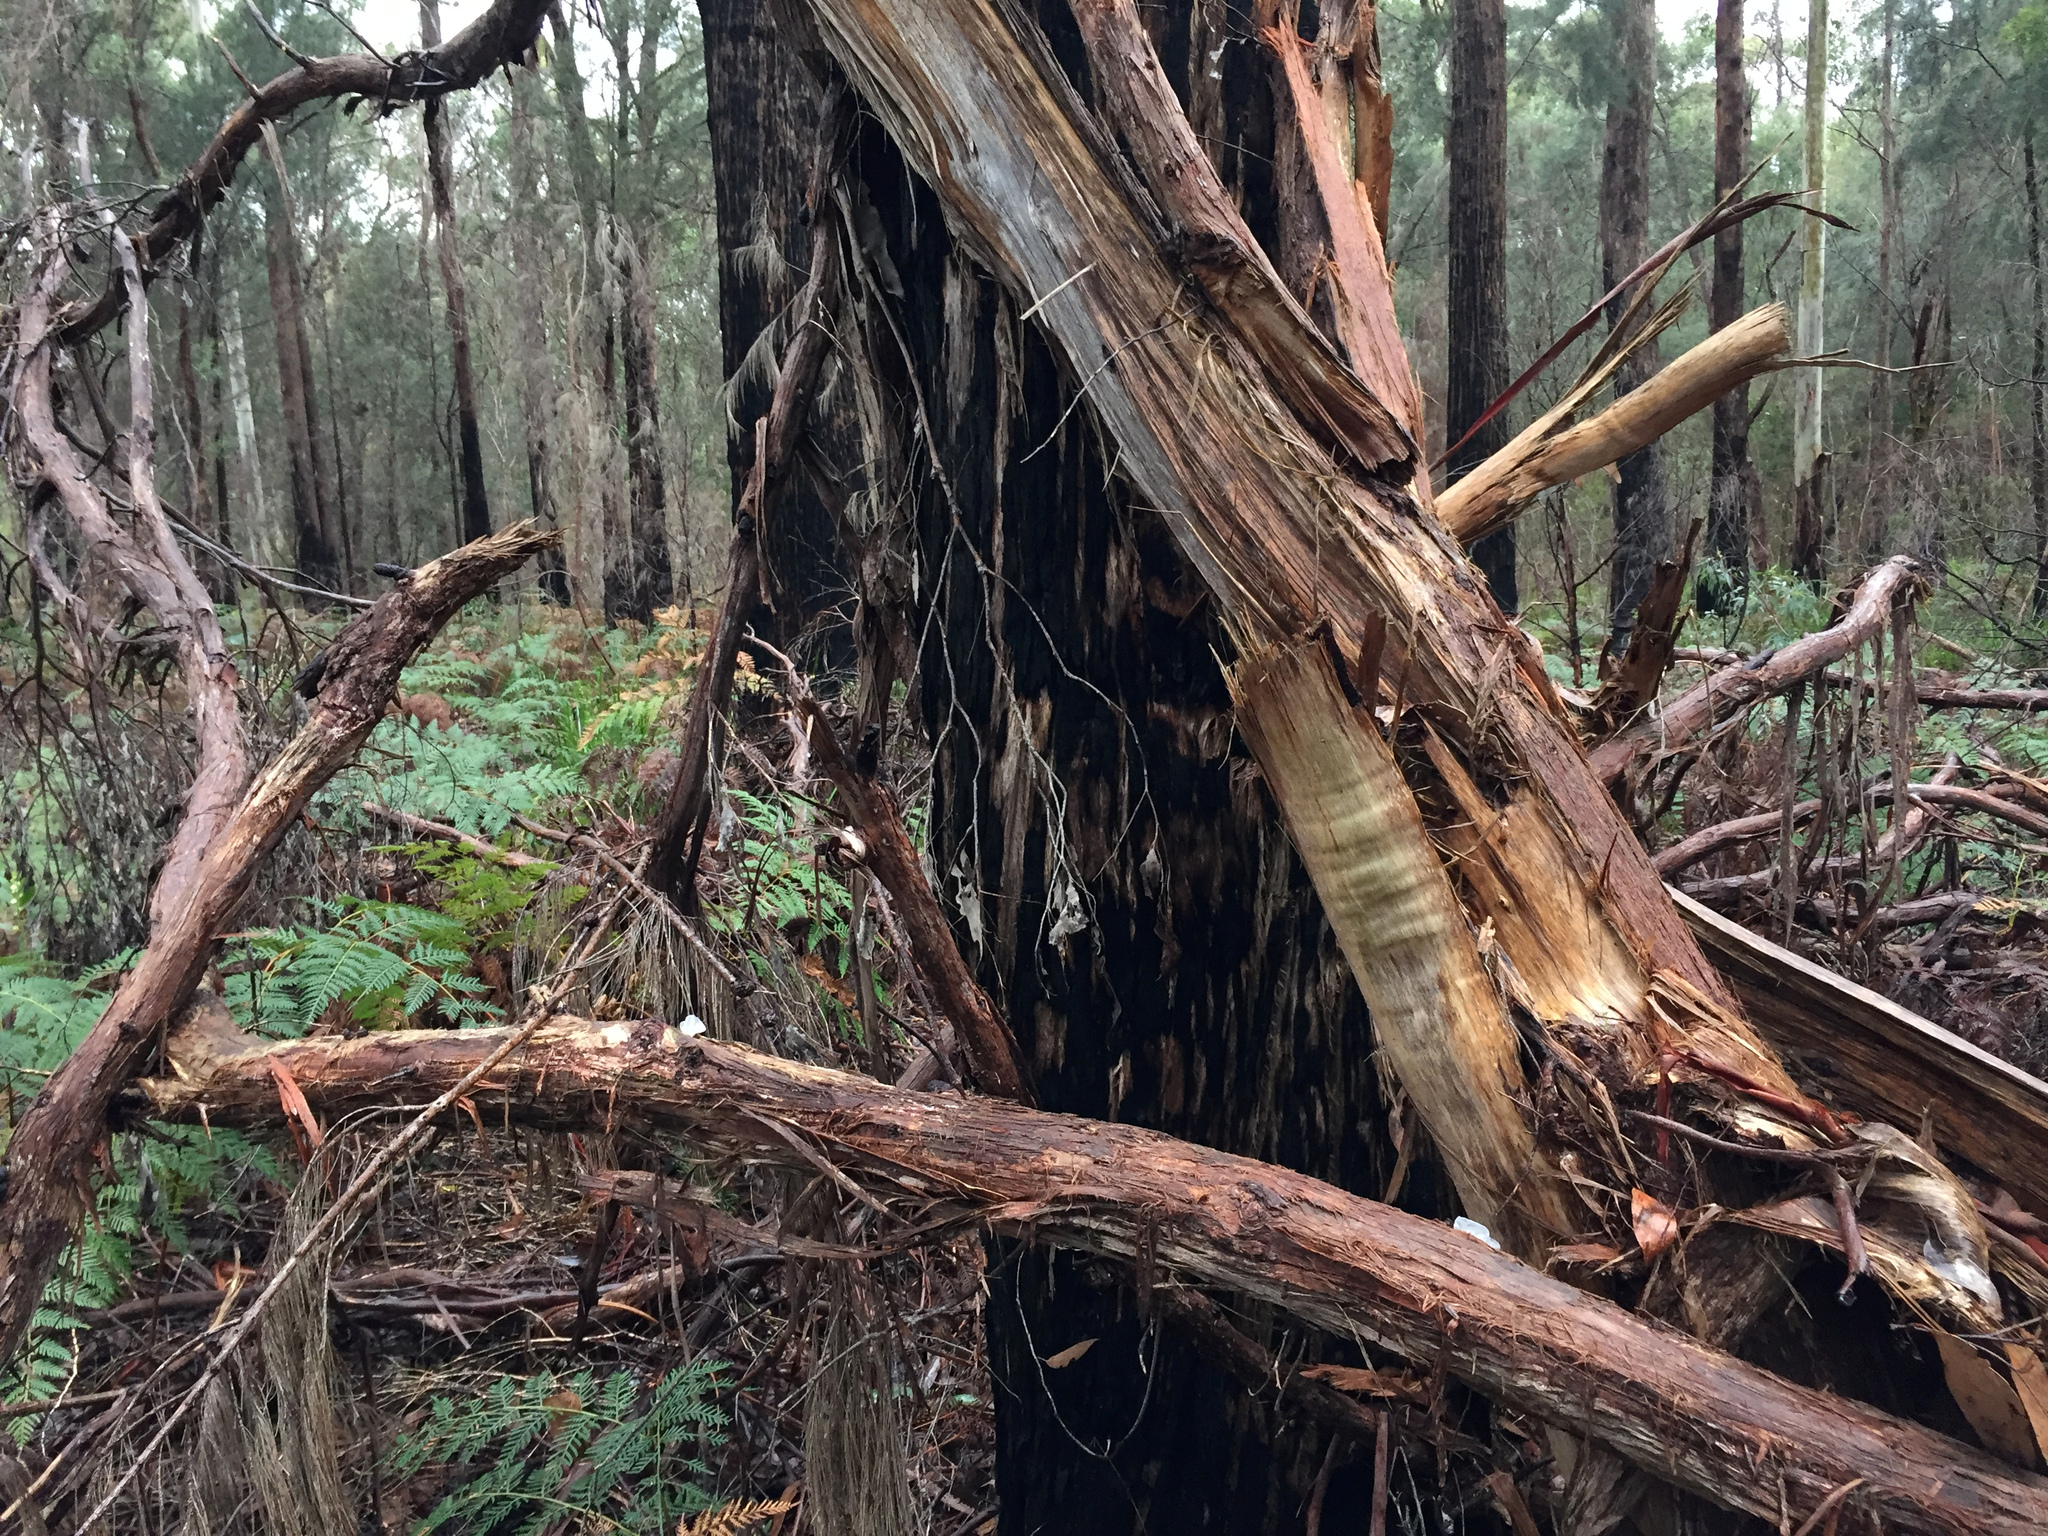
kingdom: Fungi
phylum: Basidiomycota
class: Tremellomycetes
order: Tremellales
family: Tremellaceae
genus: Tremella
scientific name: Tremella fuciformis
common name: Snow fungus
